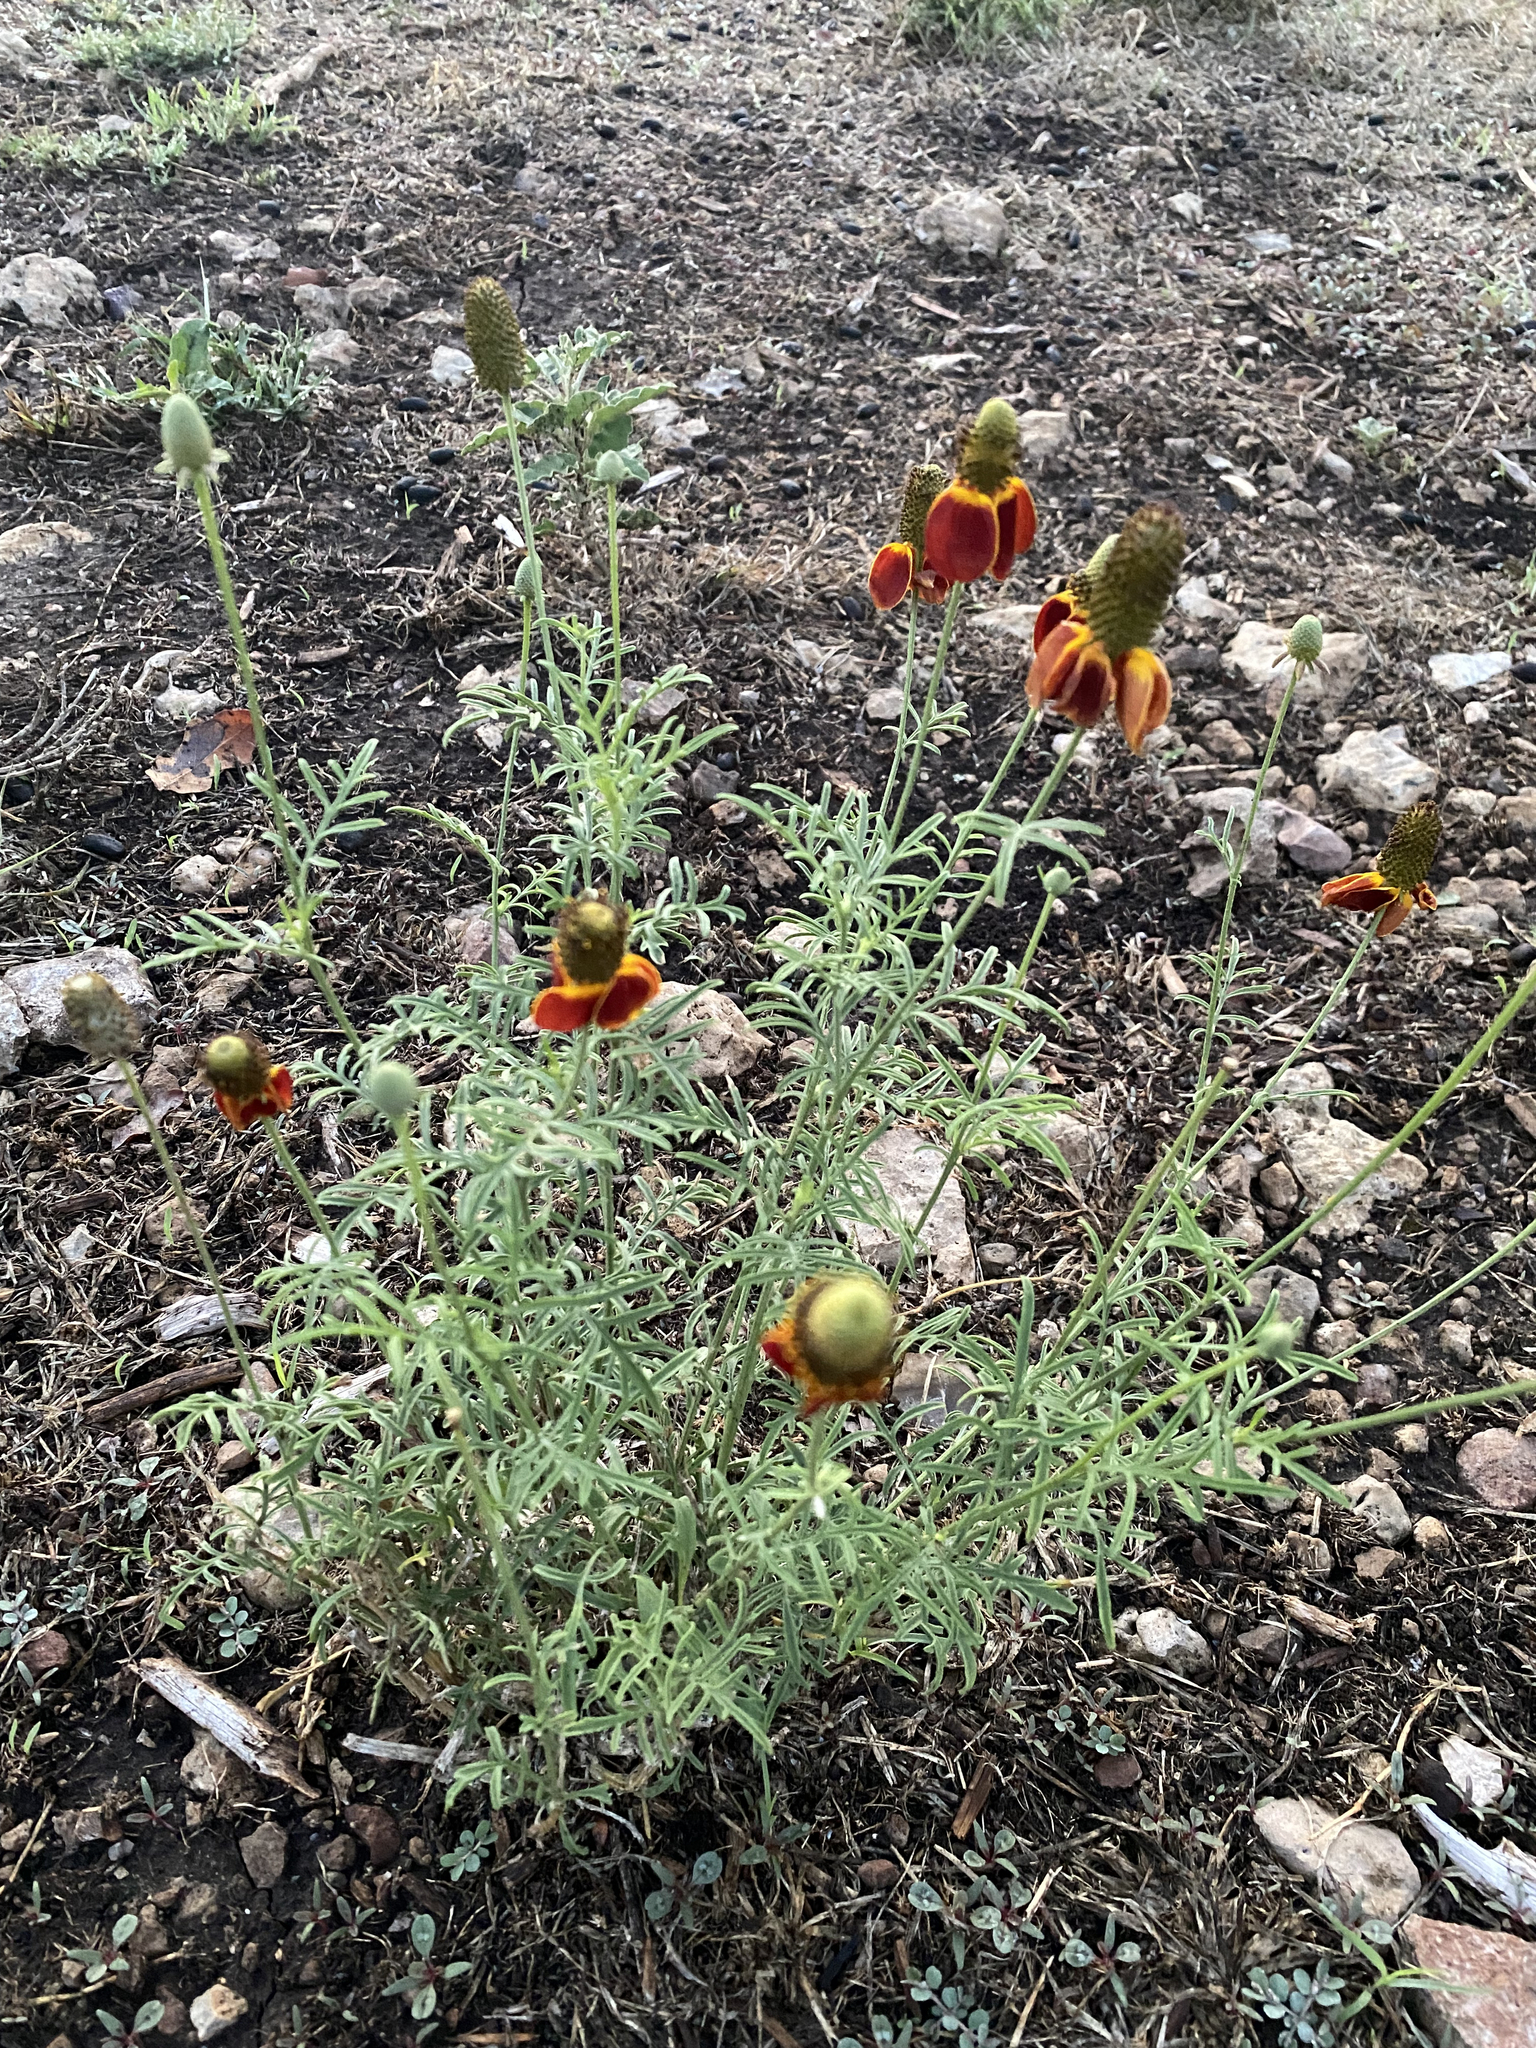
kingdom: Plantae
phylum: Tracheophyta
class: Magnoliopsida
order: Asterales
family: Asteraceae
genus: Ratibida
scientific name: Ratibida columnifera
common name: Prairie coneflower
